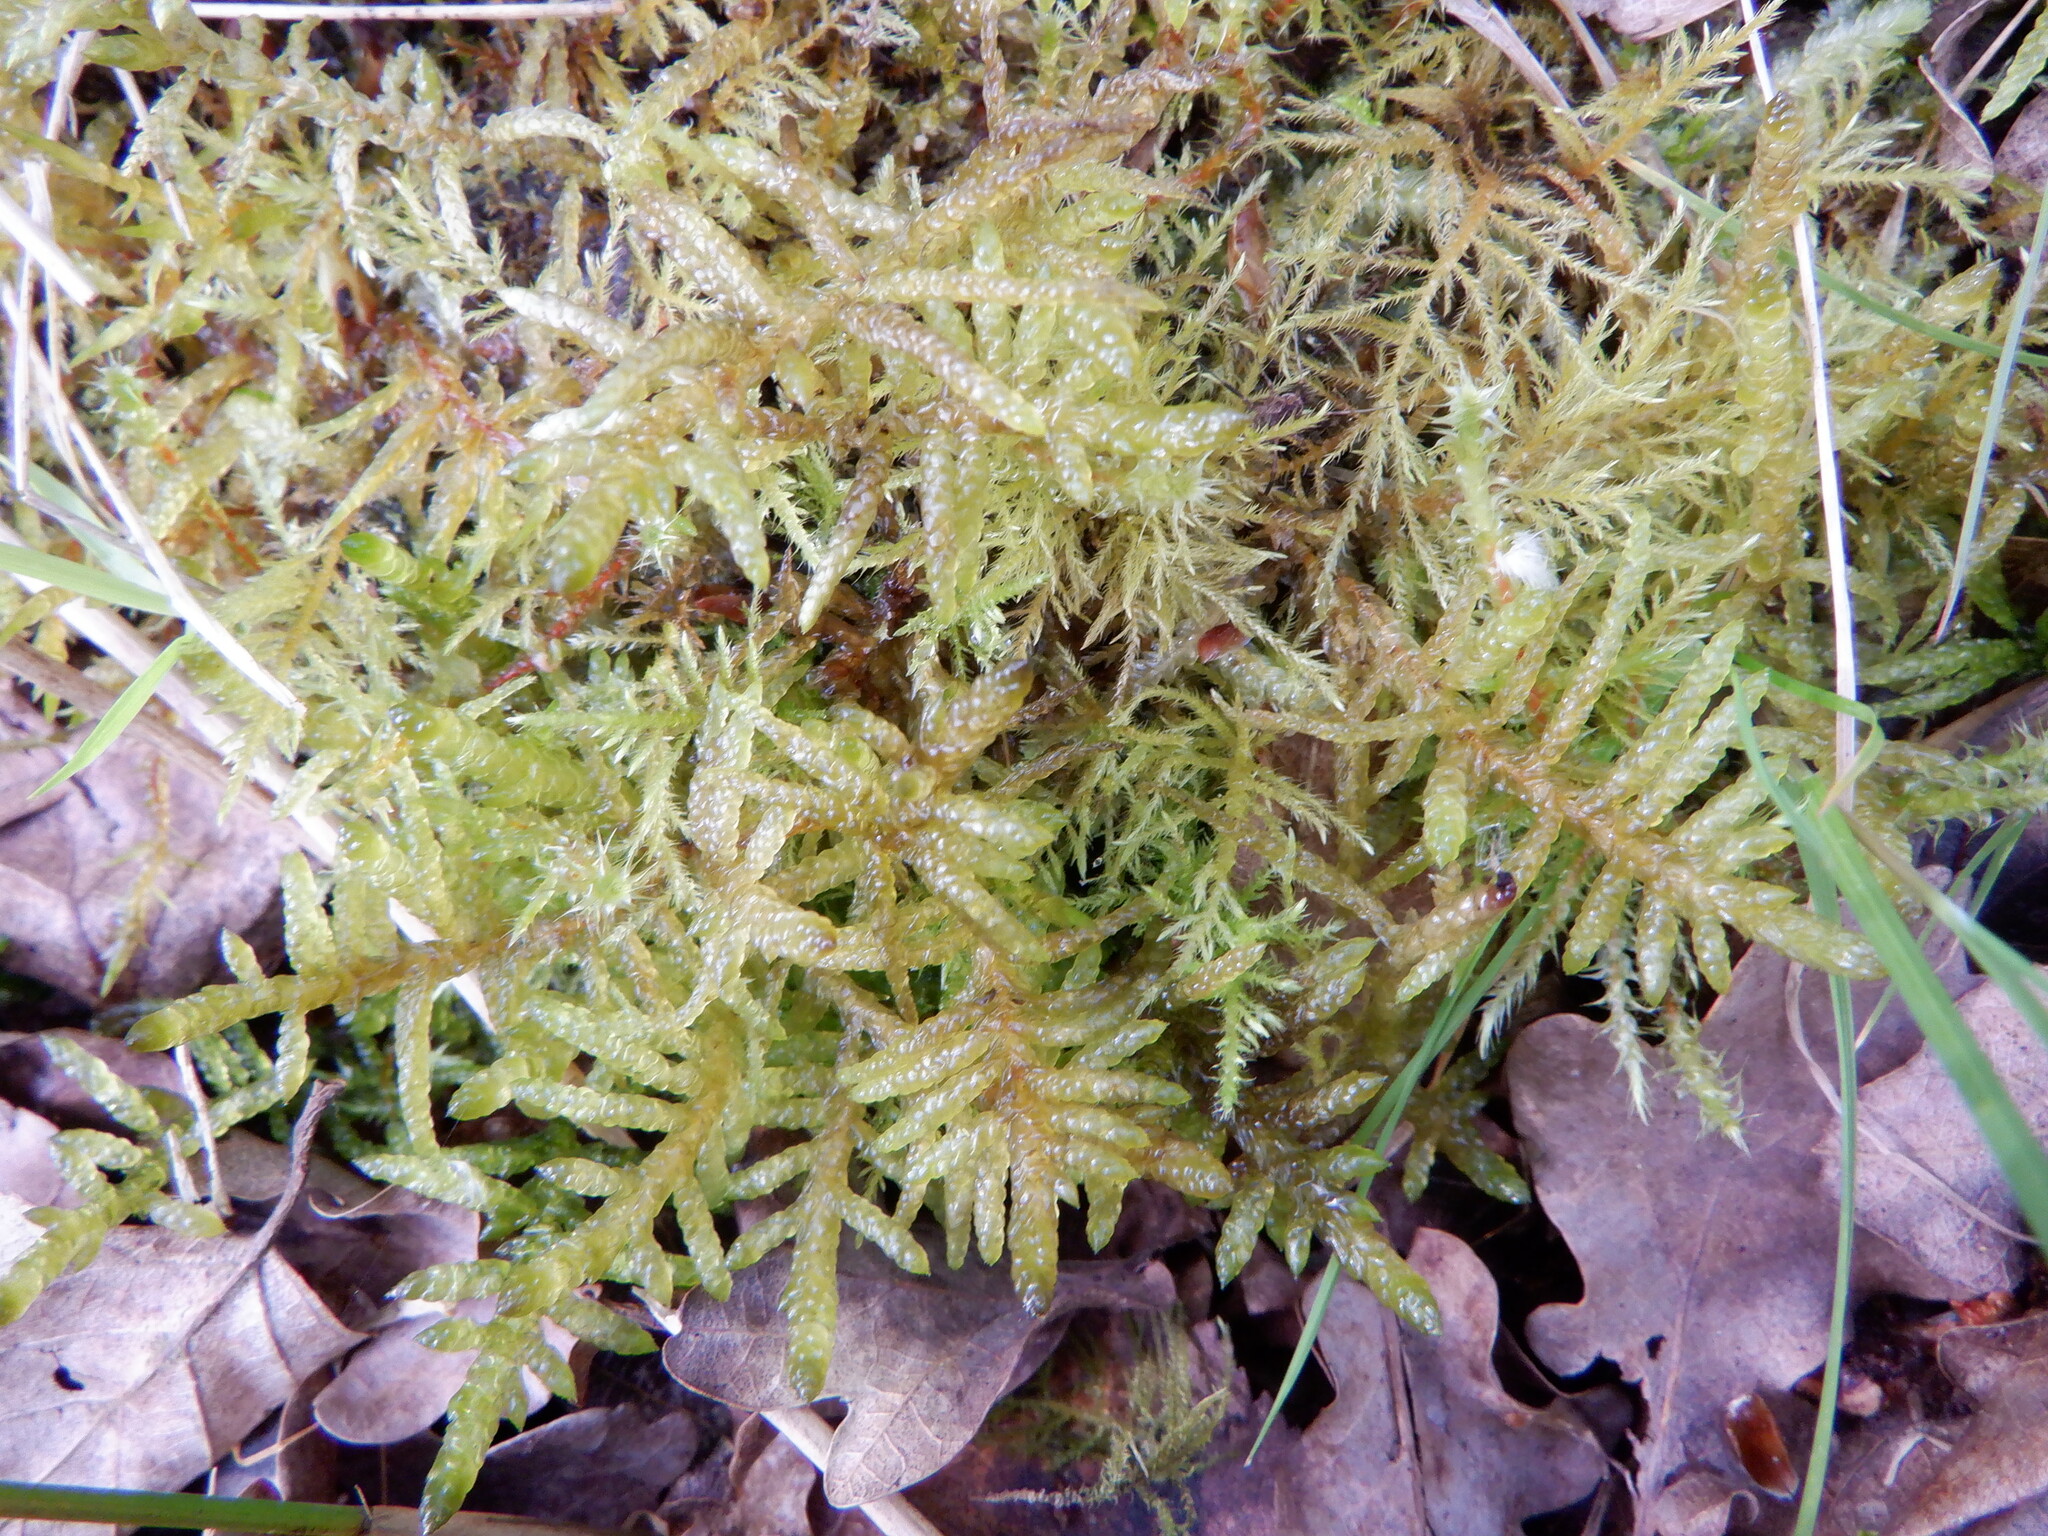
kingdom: Plantae
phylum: Bryophyta
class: Bryopsida
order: Hypnales
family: Brachytheciaceae
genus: Pseudoscleropodium
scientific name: Pseudoscleropodium purum
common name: Neat feather-moss
